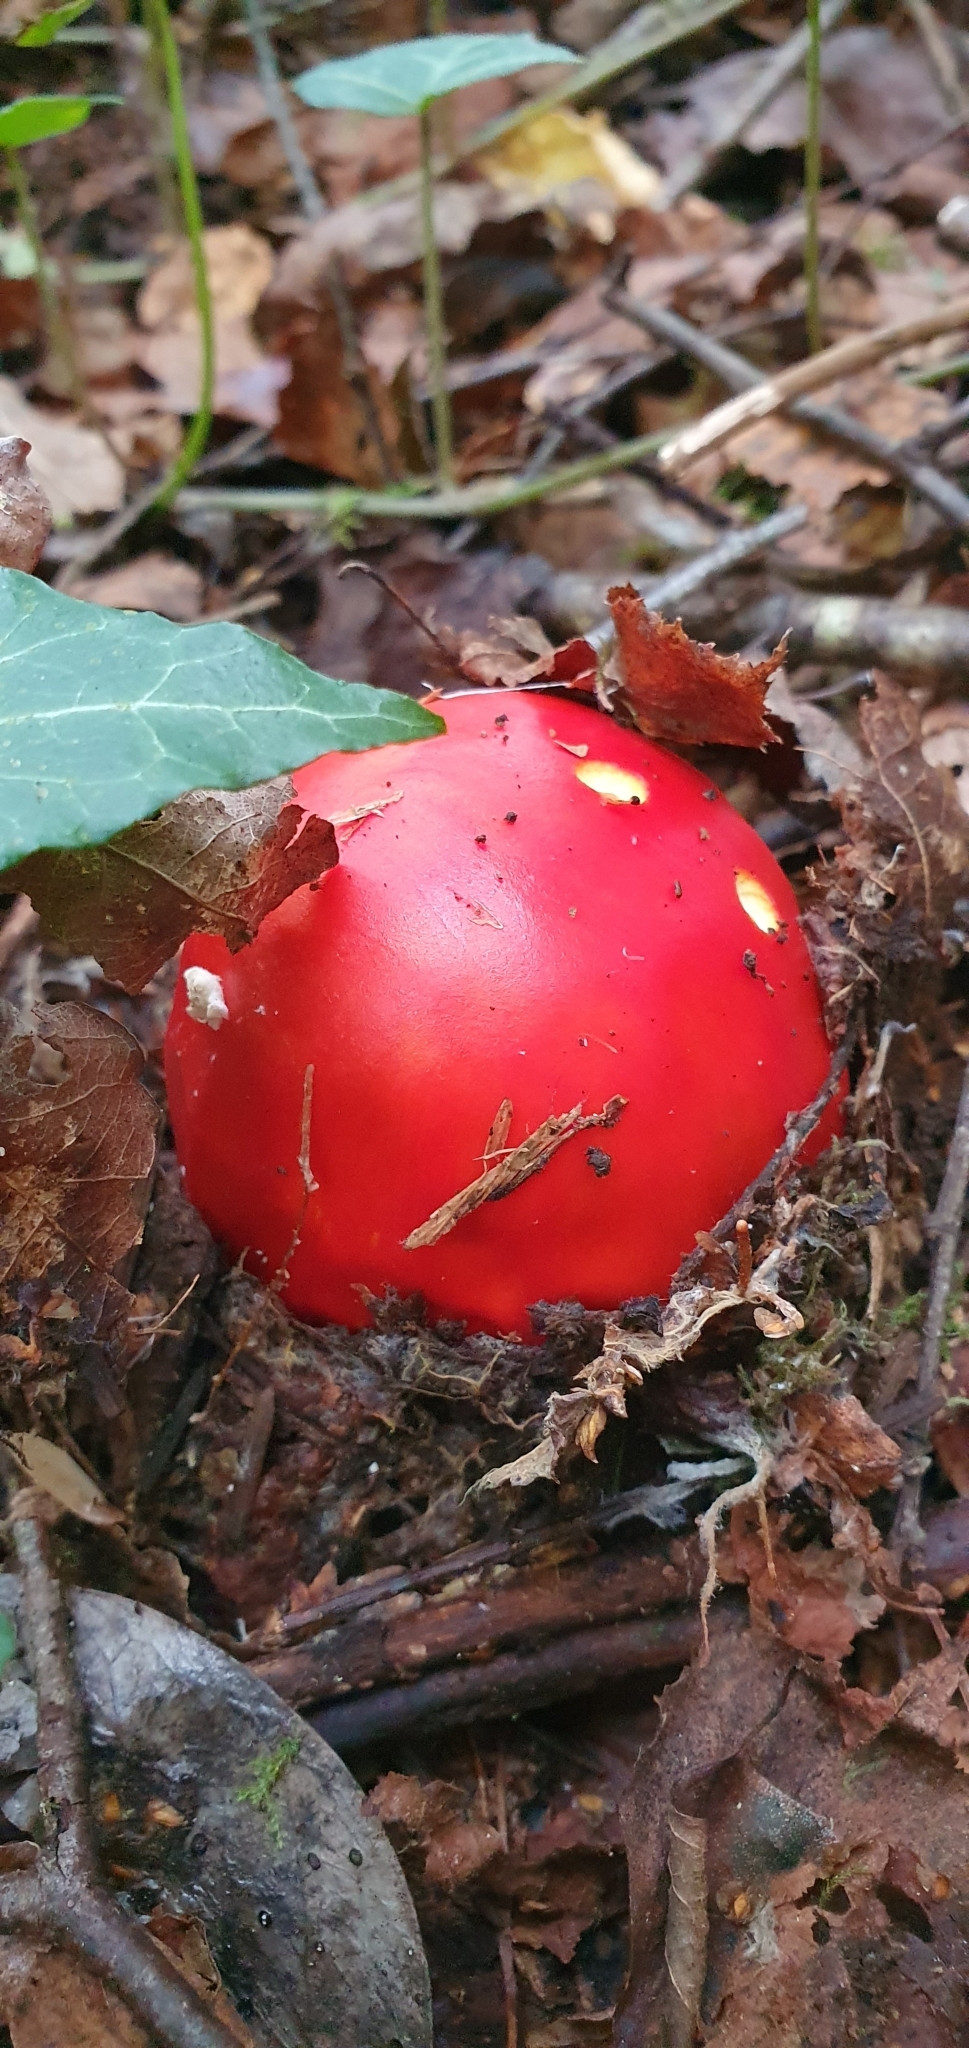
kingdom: Fungi
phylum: Basidiomycota
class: Agaricomycetes
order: Agaricales
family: Amanitaceae
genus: Amanita
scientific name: Amanita muscaria
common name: Fly agaric
